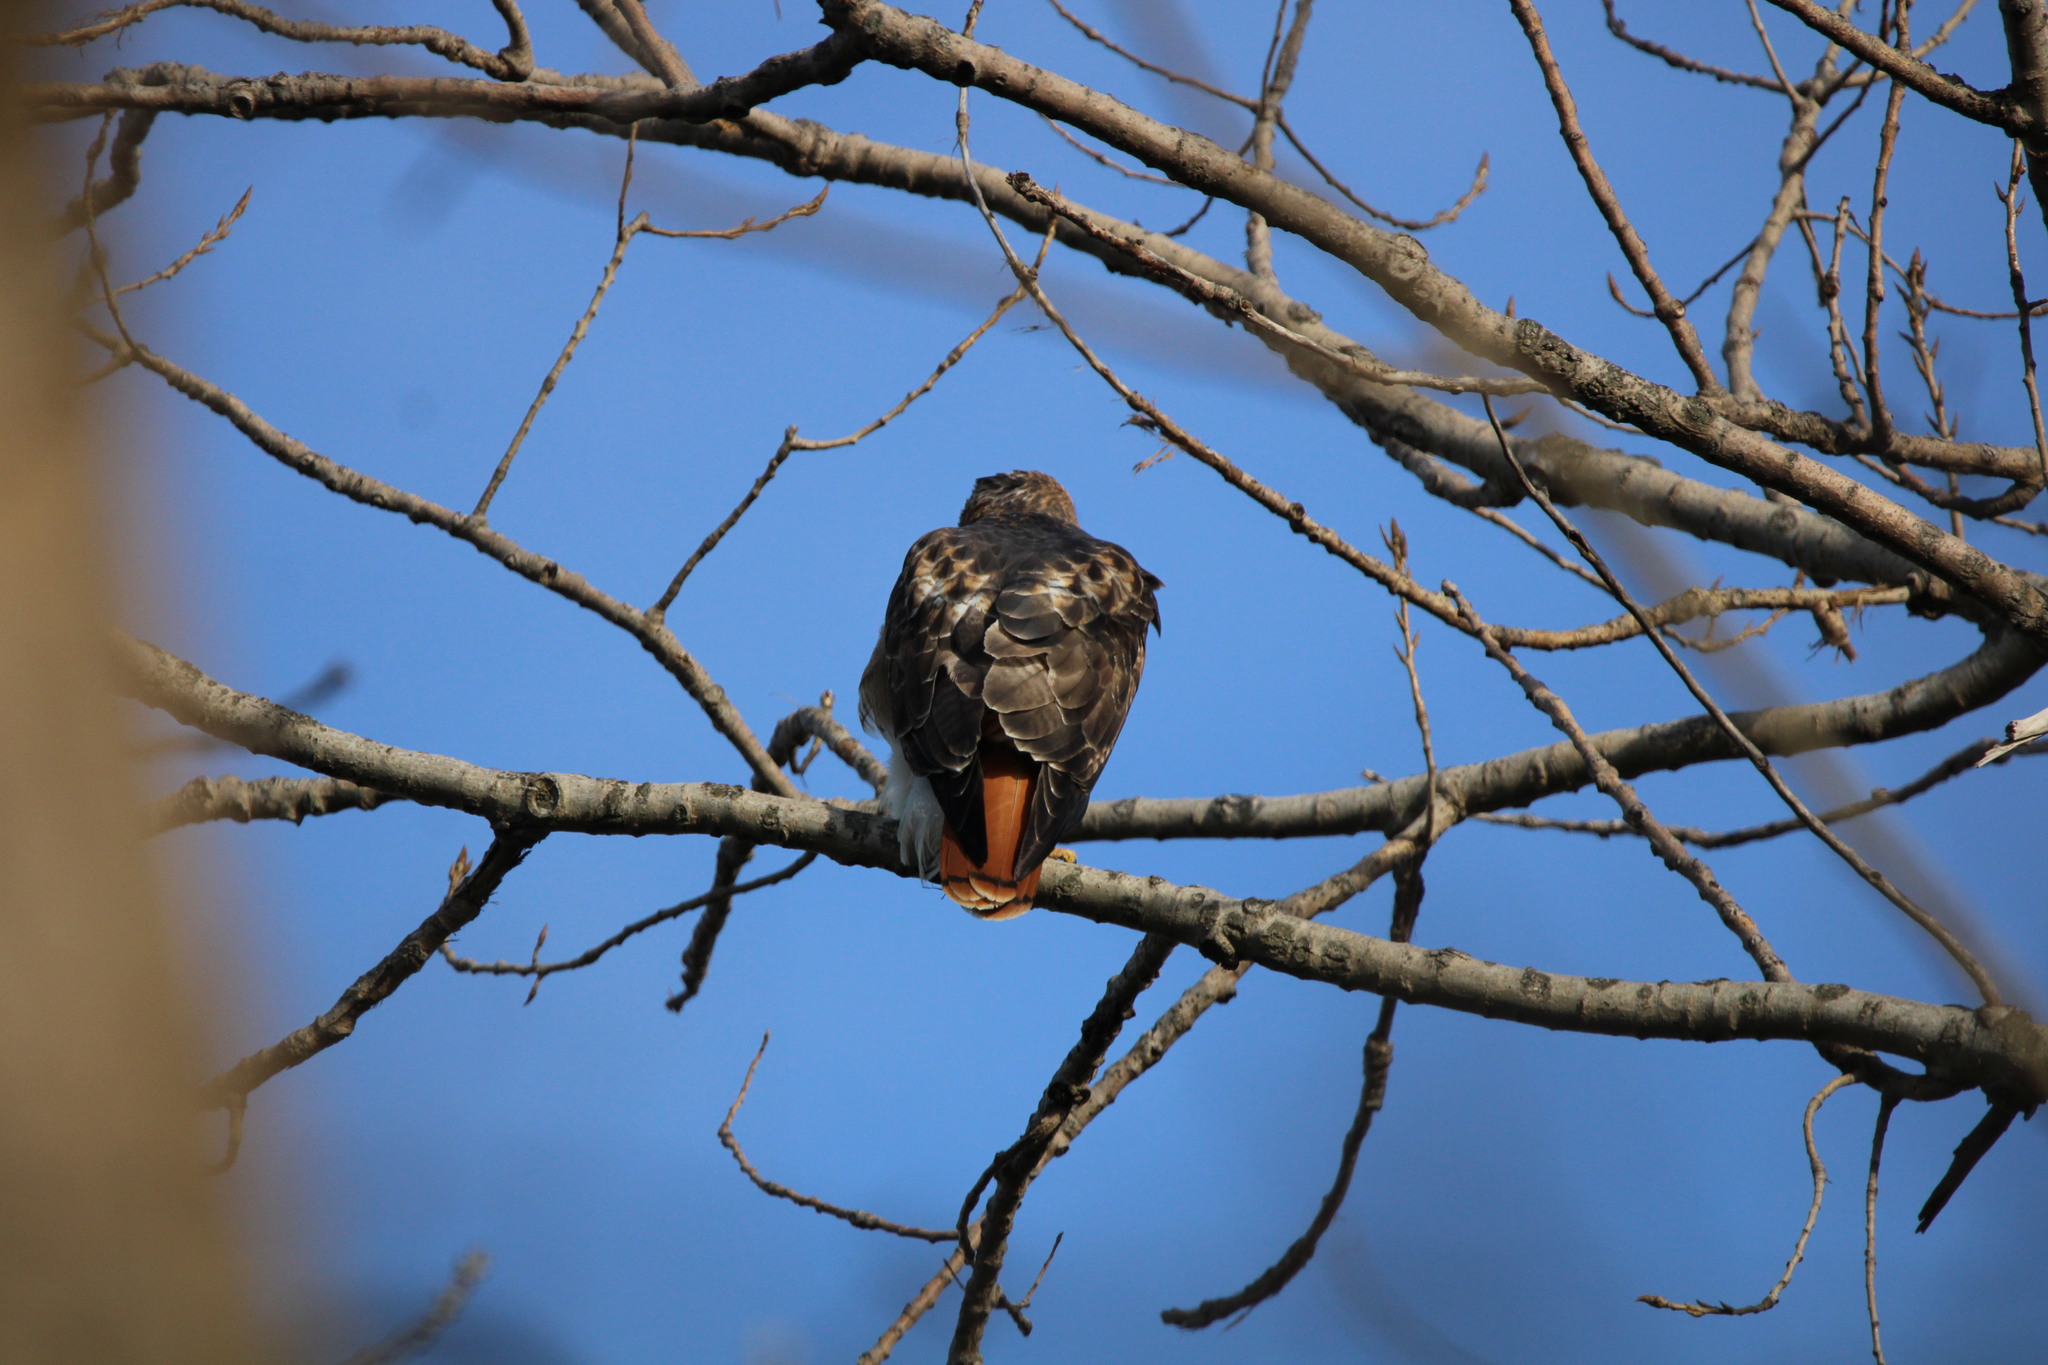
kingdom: Animalia
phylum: Chordata
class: Aves
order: Accipitriformes
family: Accipitridae
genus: Buteo
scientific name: Buteo jamaicensis
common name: Red-tailed hawk
